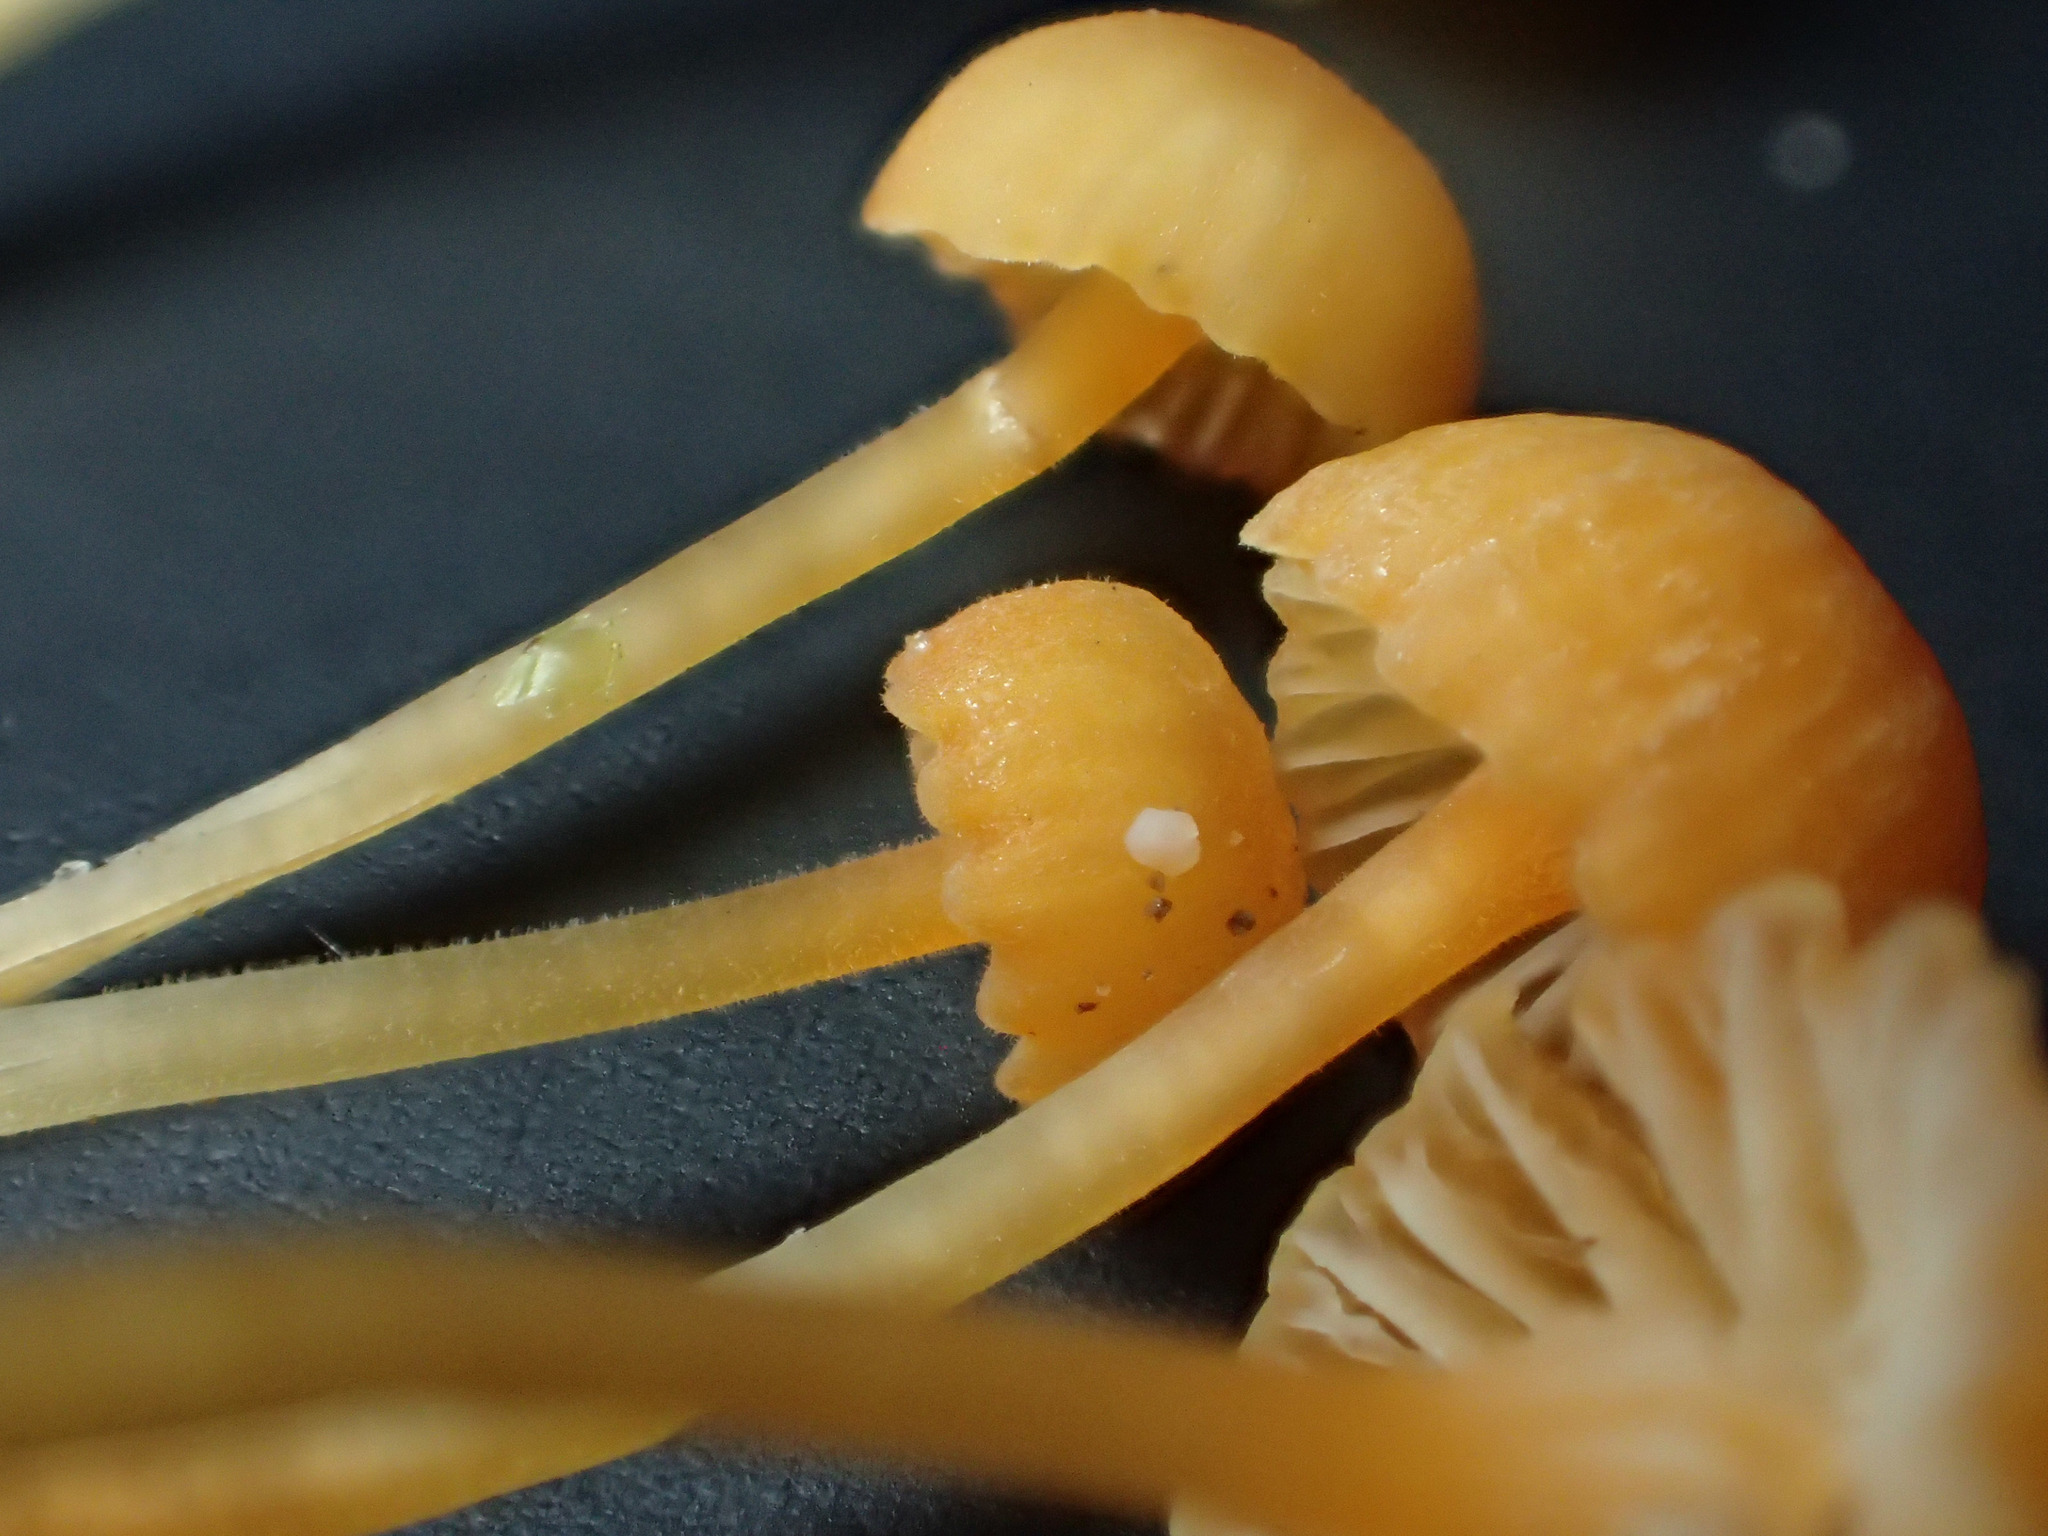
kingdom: Fungi
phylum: Basidiomycota
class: Agaricomycetes
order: Hymenochaetales
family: Rickenellaceae
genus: Rickenella
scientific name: Rickenella fibula
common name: Orange mosscap
